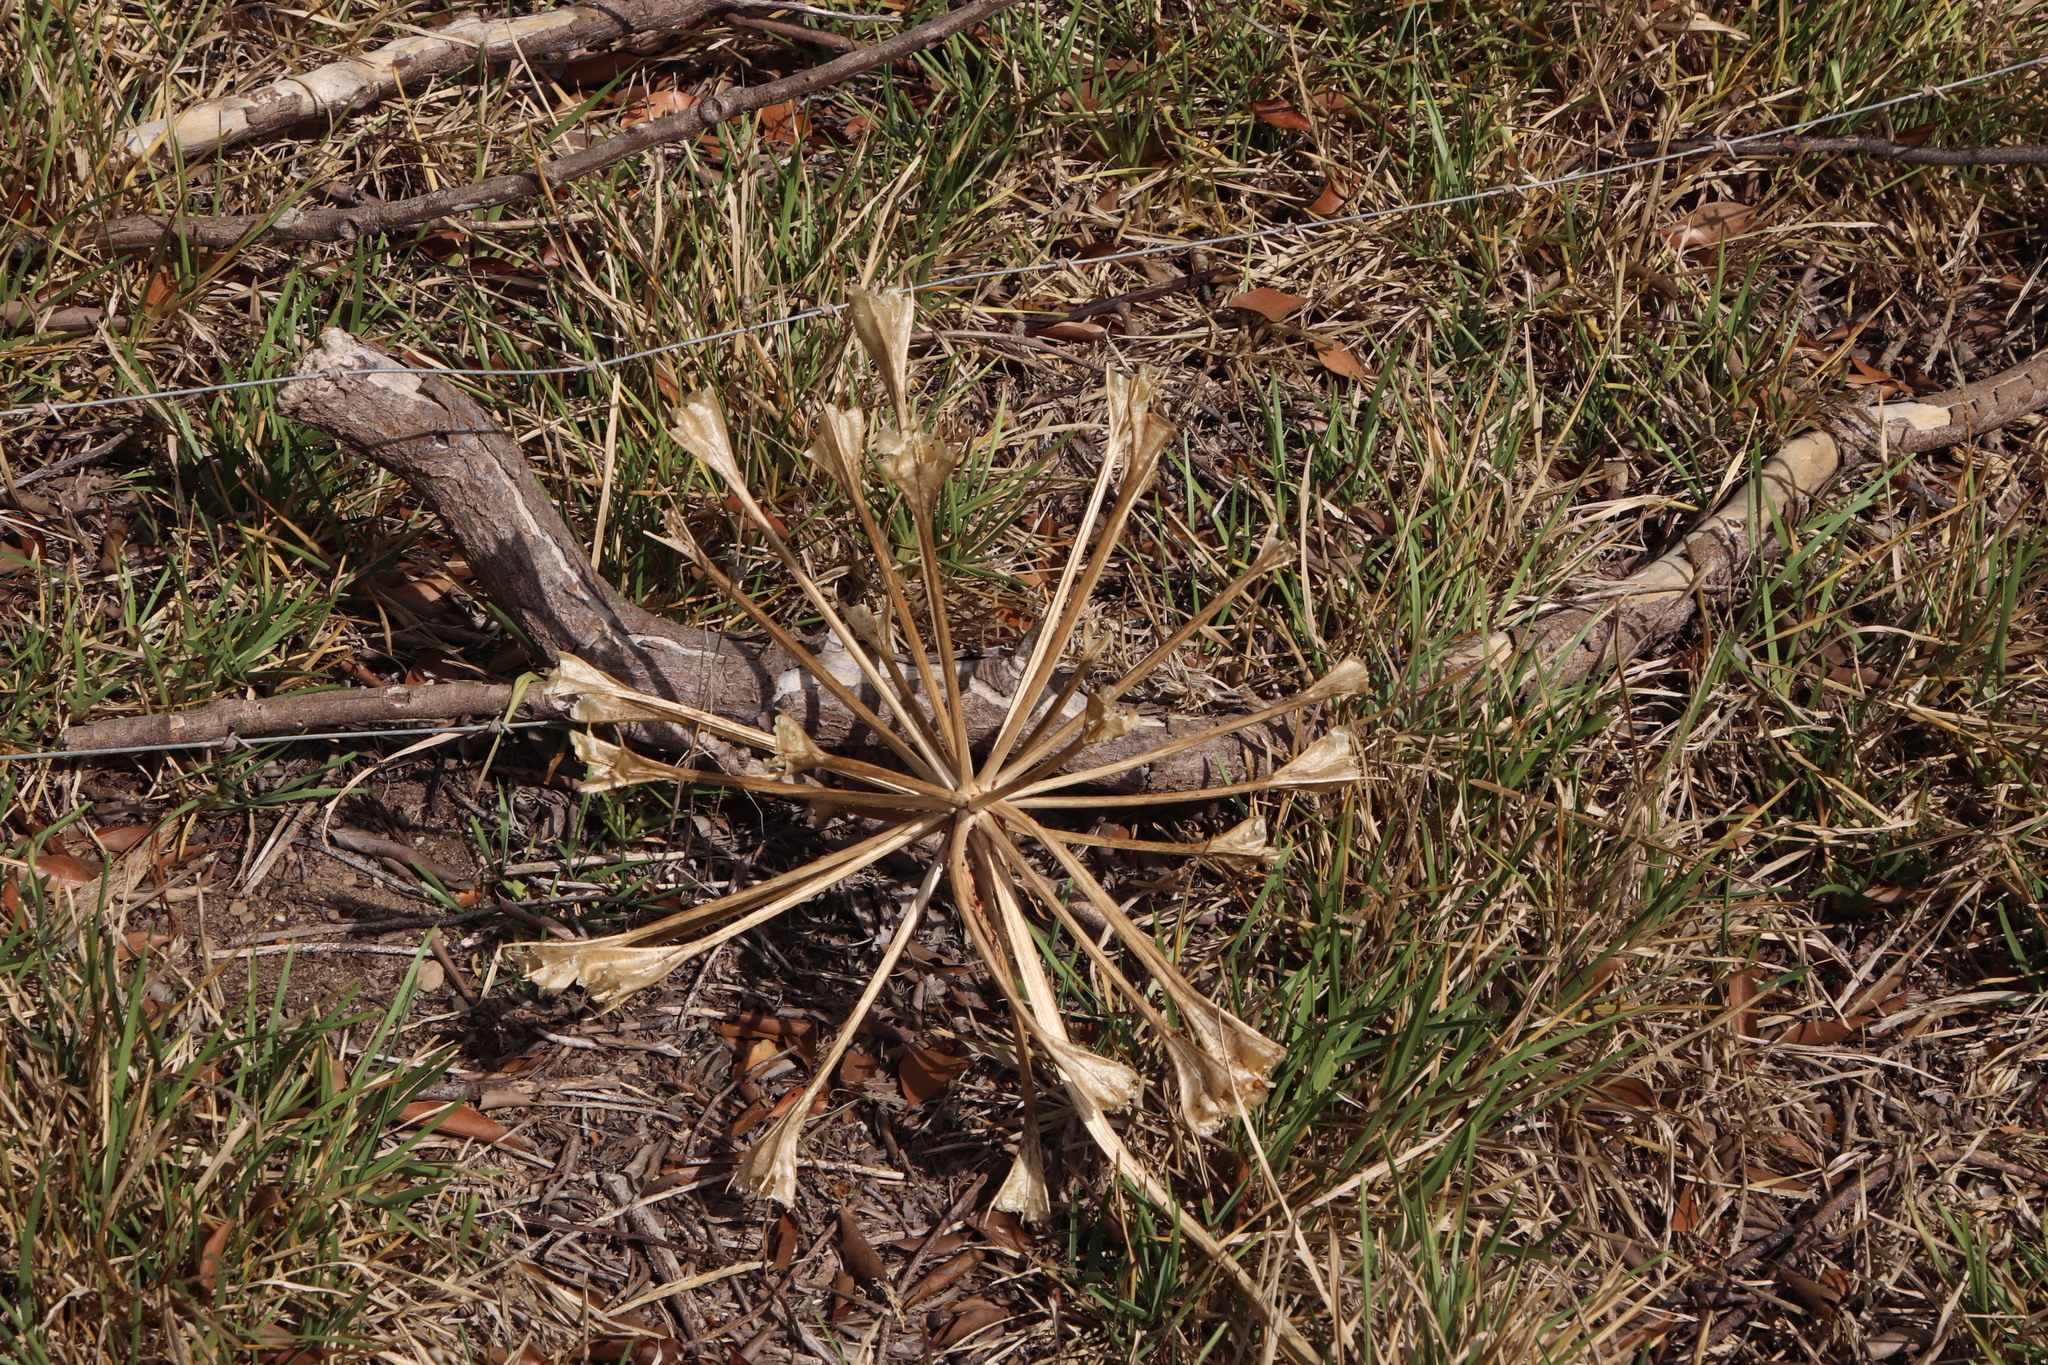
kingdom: Plantae
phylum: Tracheophyta
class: Liliopsida
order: Asparagales
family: Amaryllidaceae
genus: Brunsvigia
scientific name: Brunsvigia orientalis
